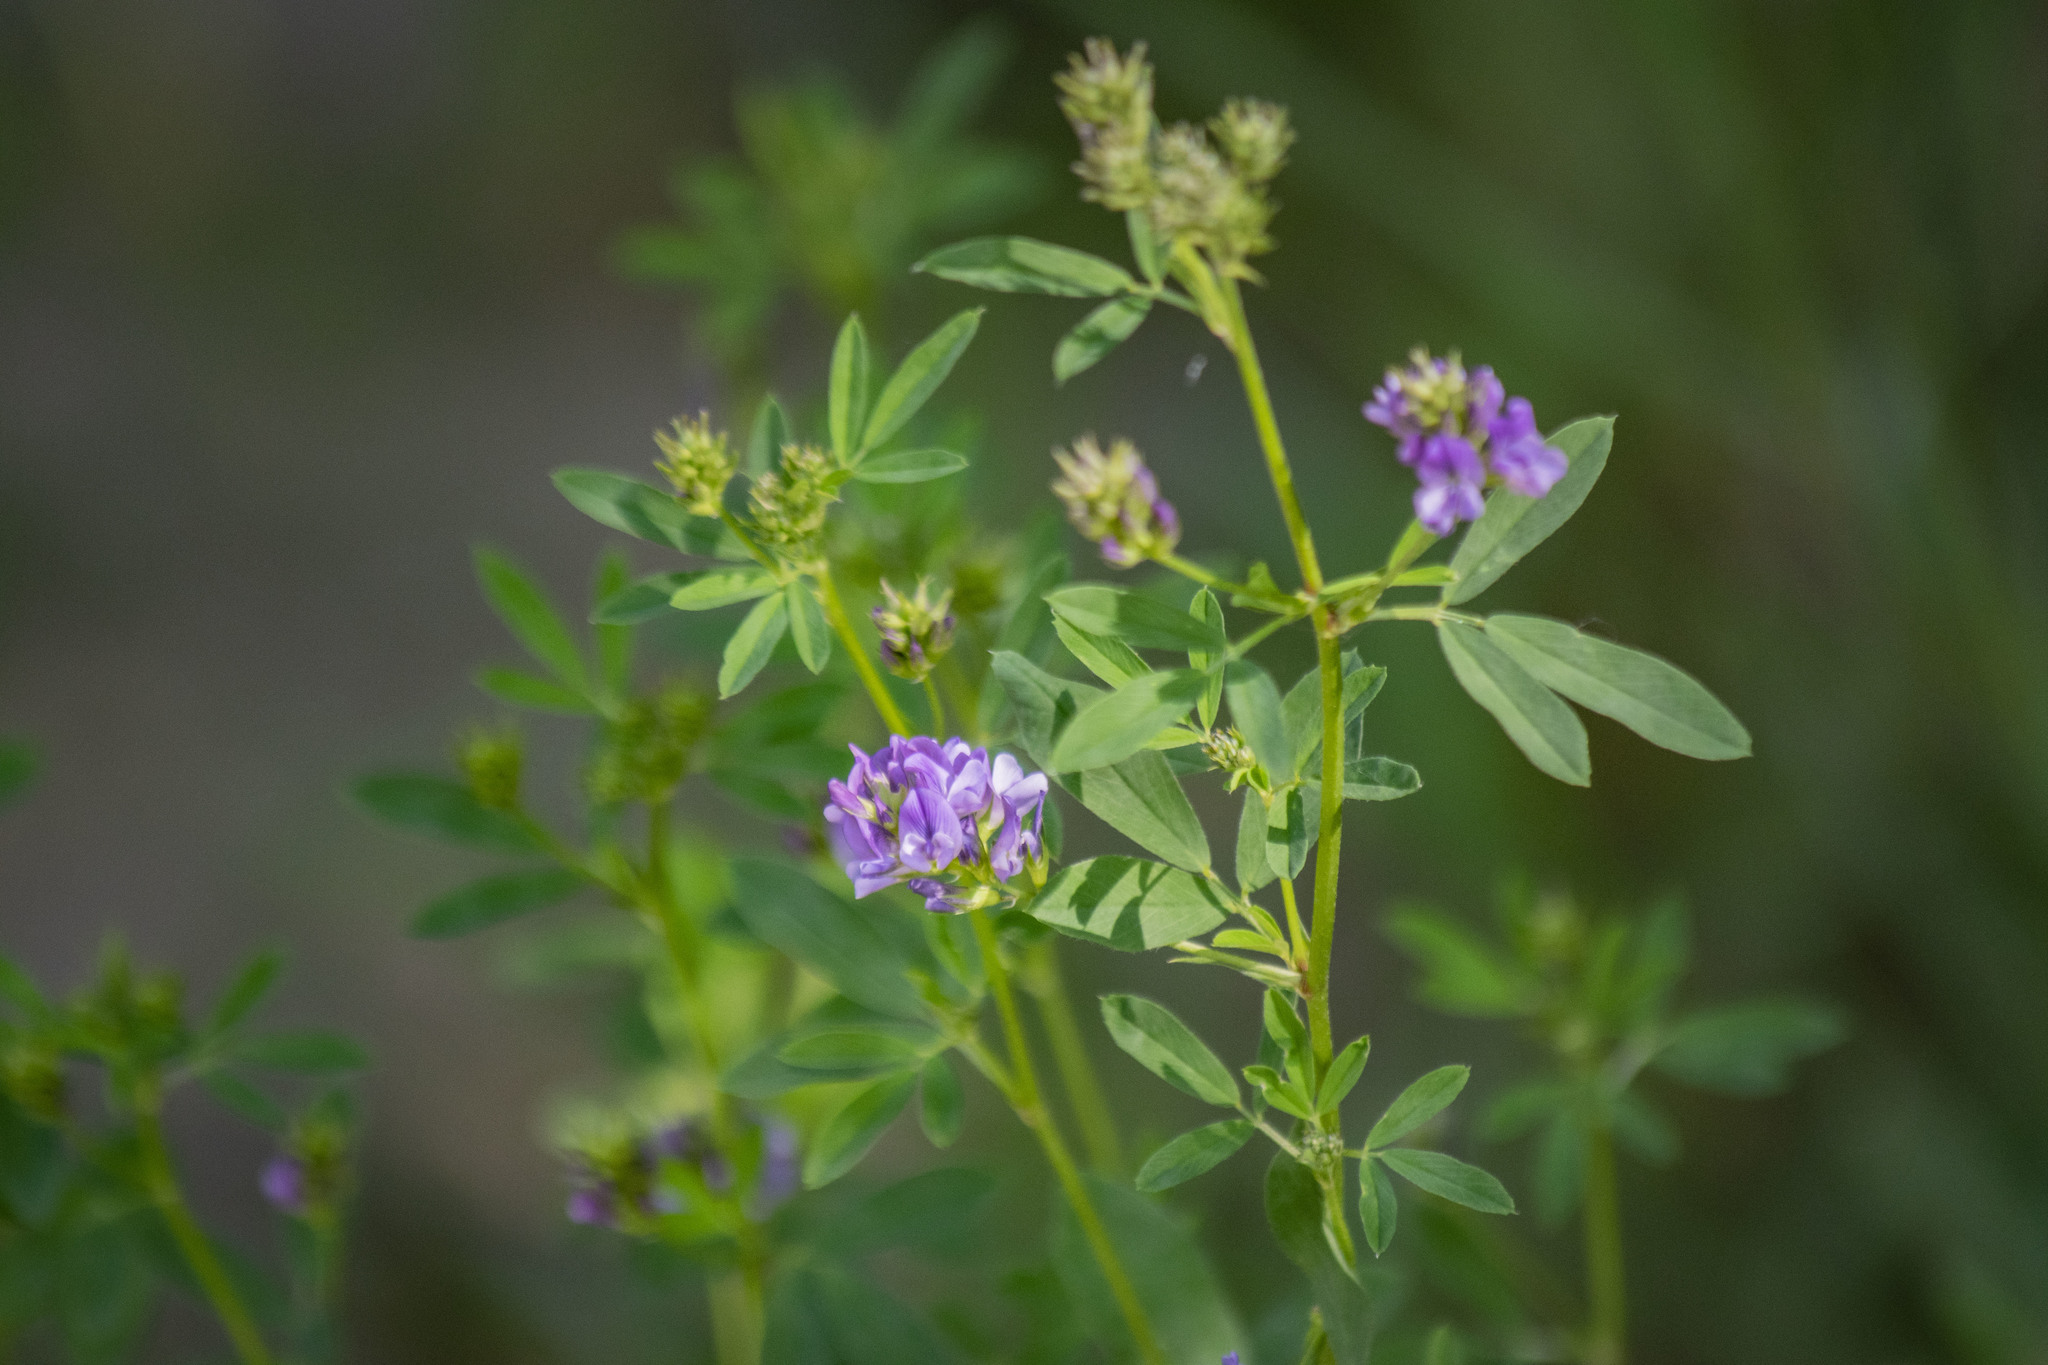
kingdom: Plantae
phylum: Tracheophyta
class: Magnoliopsida
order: Fabales
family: Fabaceae
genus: Medicago
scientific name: Medicago sativa
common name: Alfalfa
